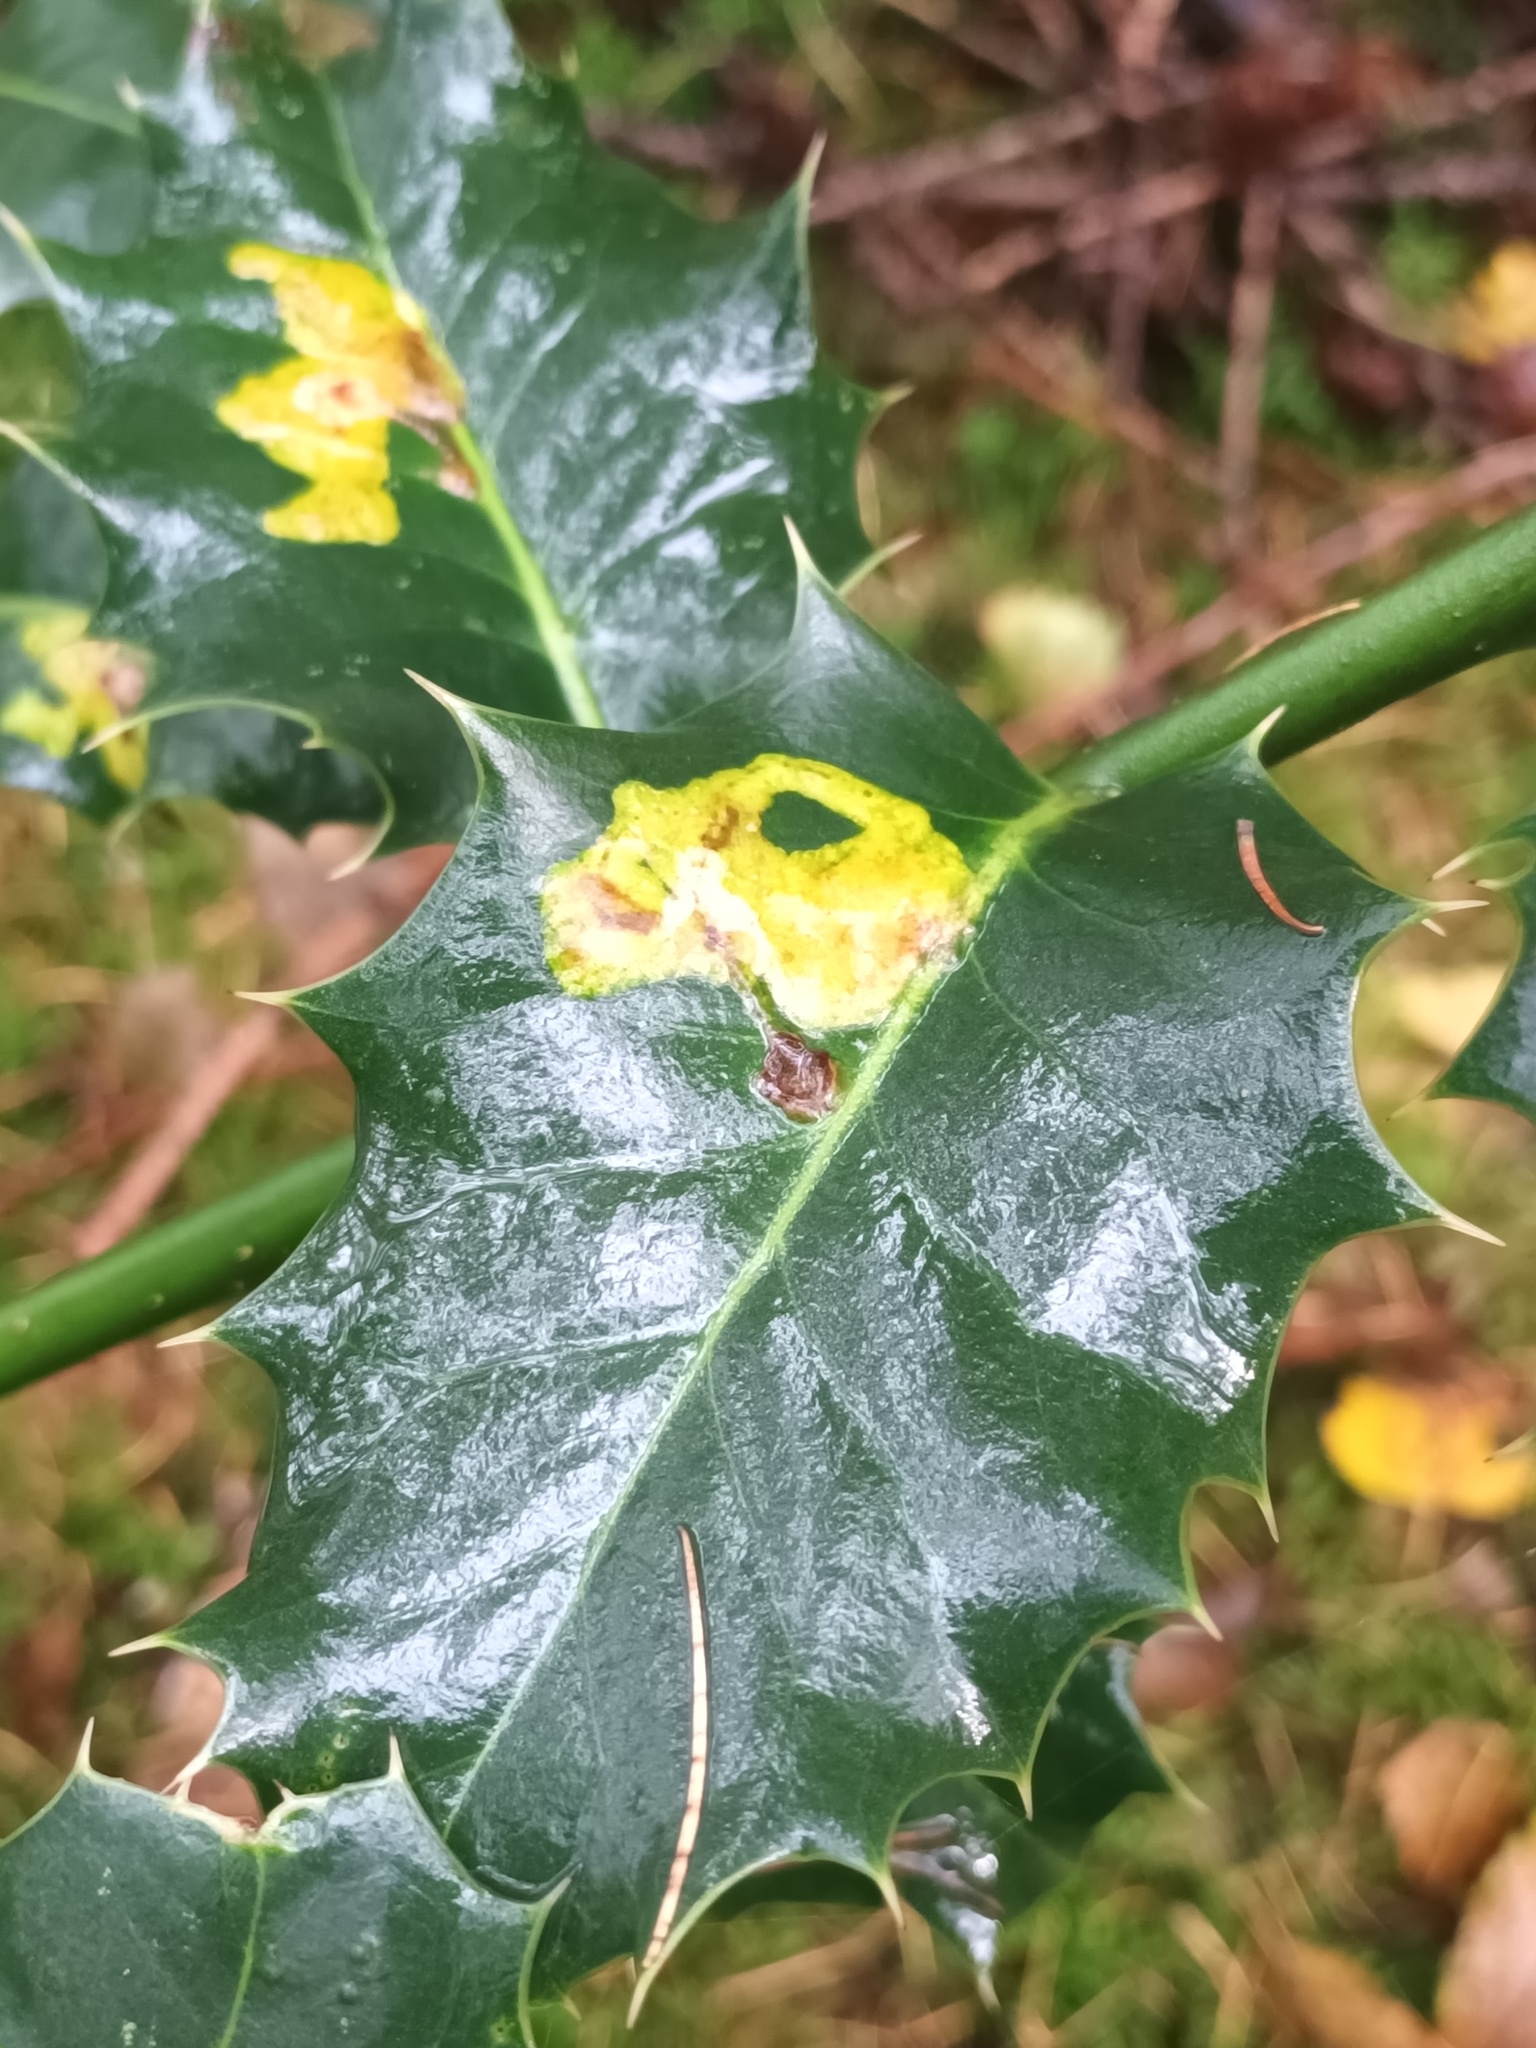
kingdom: Animalia
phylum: Arthropoda
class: Insecta
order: Diptera
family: Agromyzidae
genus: Phytomyza
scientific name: Phytomyza ilicis
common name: Holly leafminer
